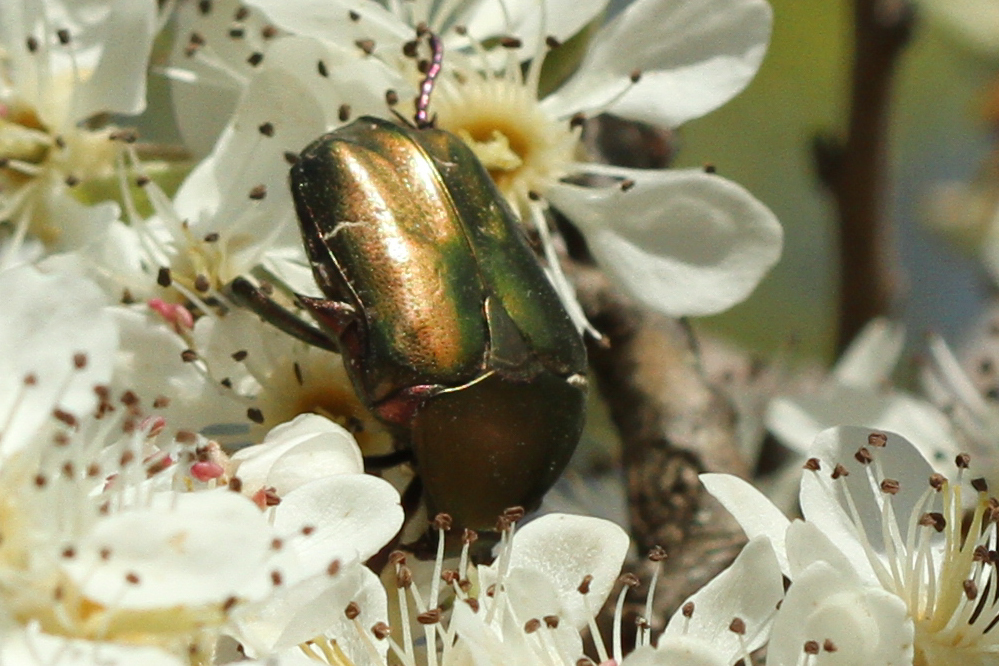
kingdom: Animalia
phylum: Arthropoda
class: Insecta
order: Coleoptera
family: Scarabaeidae
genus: Protaetia
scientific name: Protaetia cuprea
